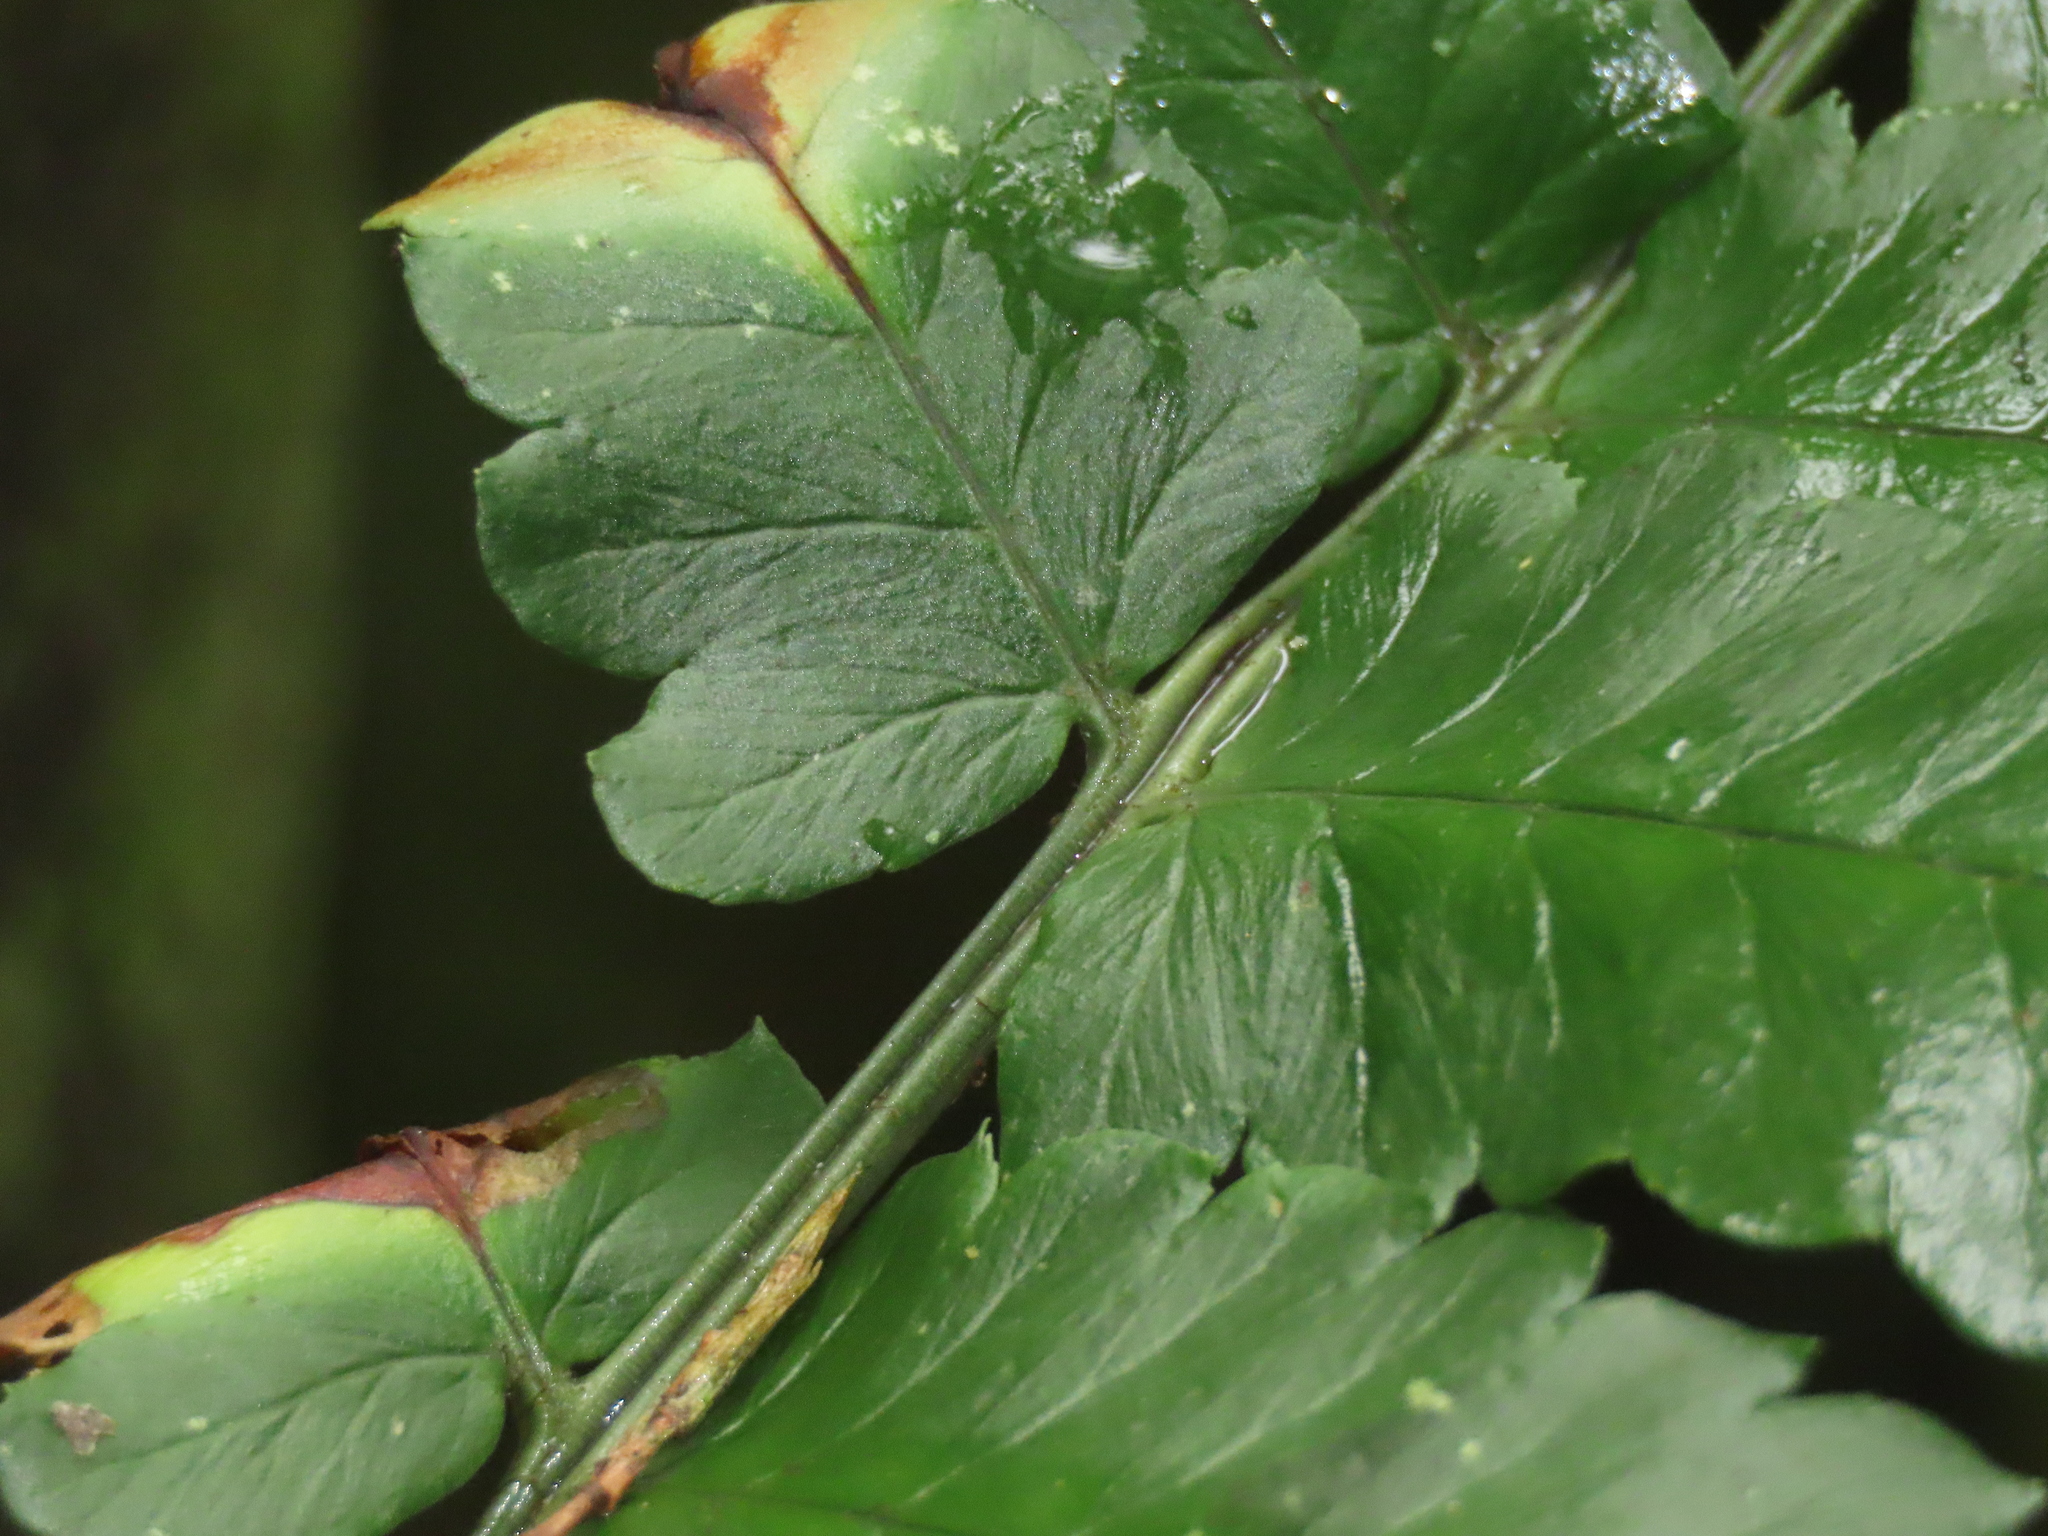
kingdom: Plantae
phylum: Tracheophyta
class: Polypodiopsida
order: Polypodiales
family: Dryopteridaceae
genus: Dryopteris
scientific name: Dryopteris scottii
